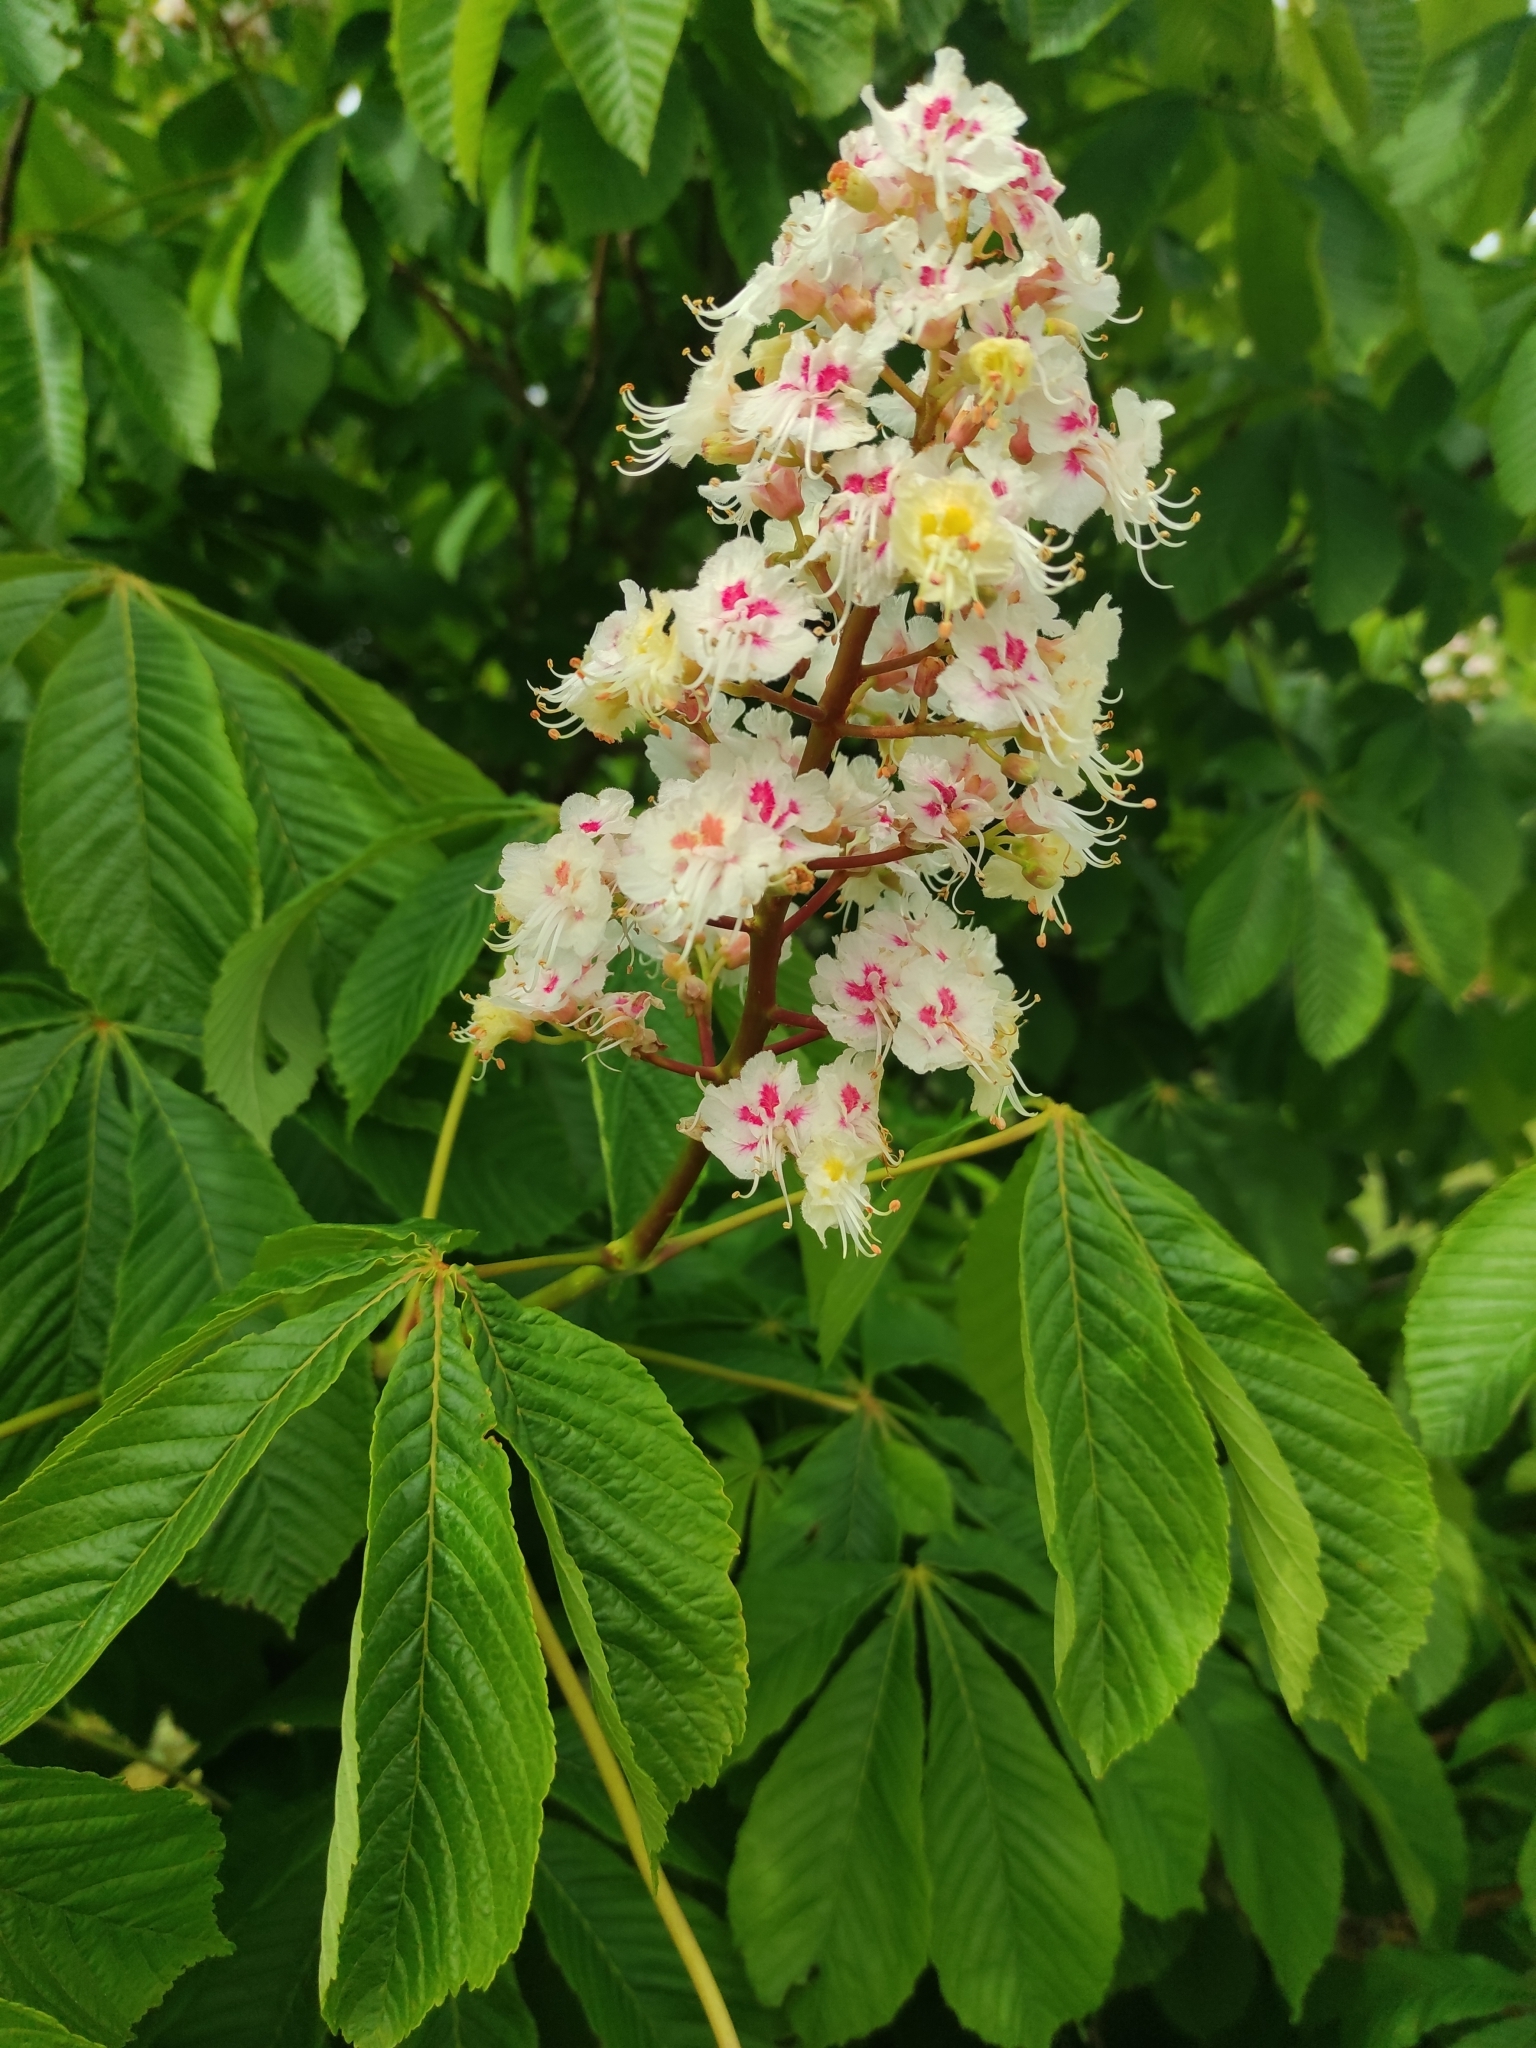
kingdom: Plantae
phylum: Tracheophyta
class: Magnoliopsida
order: Sapindales
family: Sapindaceae
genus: Aesculus
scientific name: Aesculus hippocastanum
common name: Horse-chestnut
